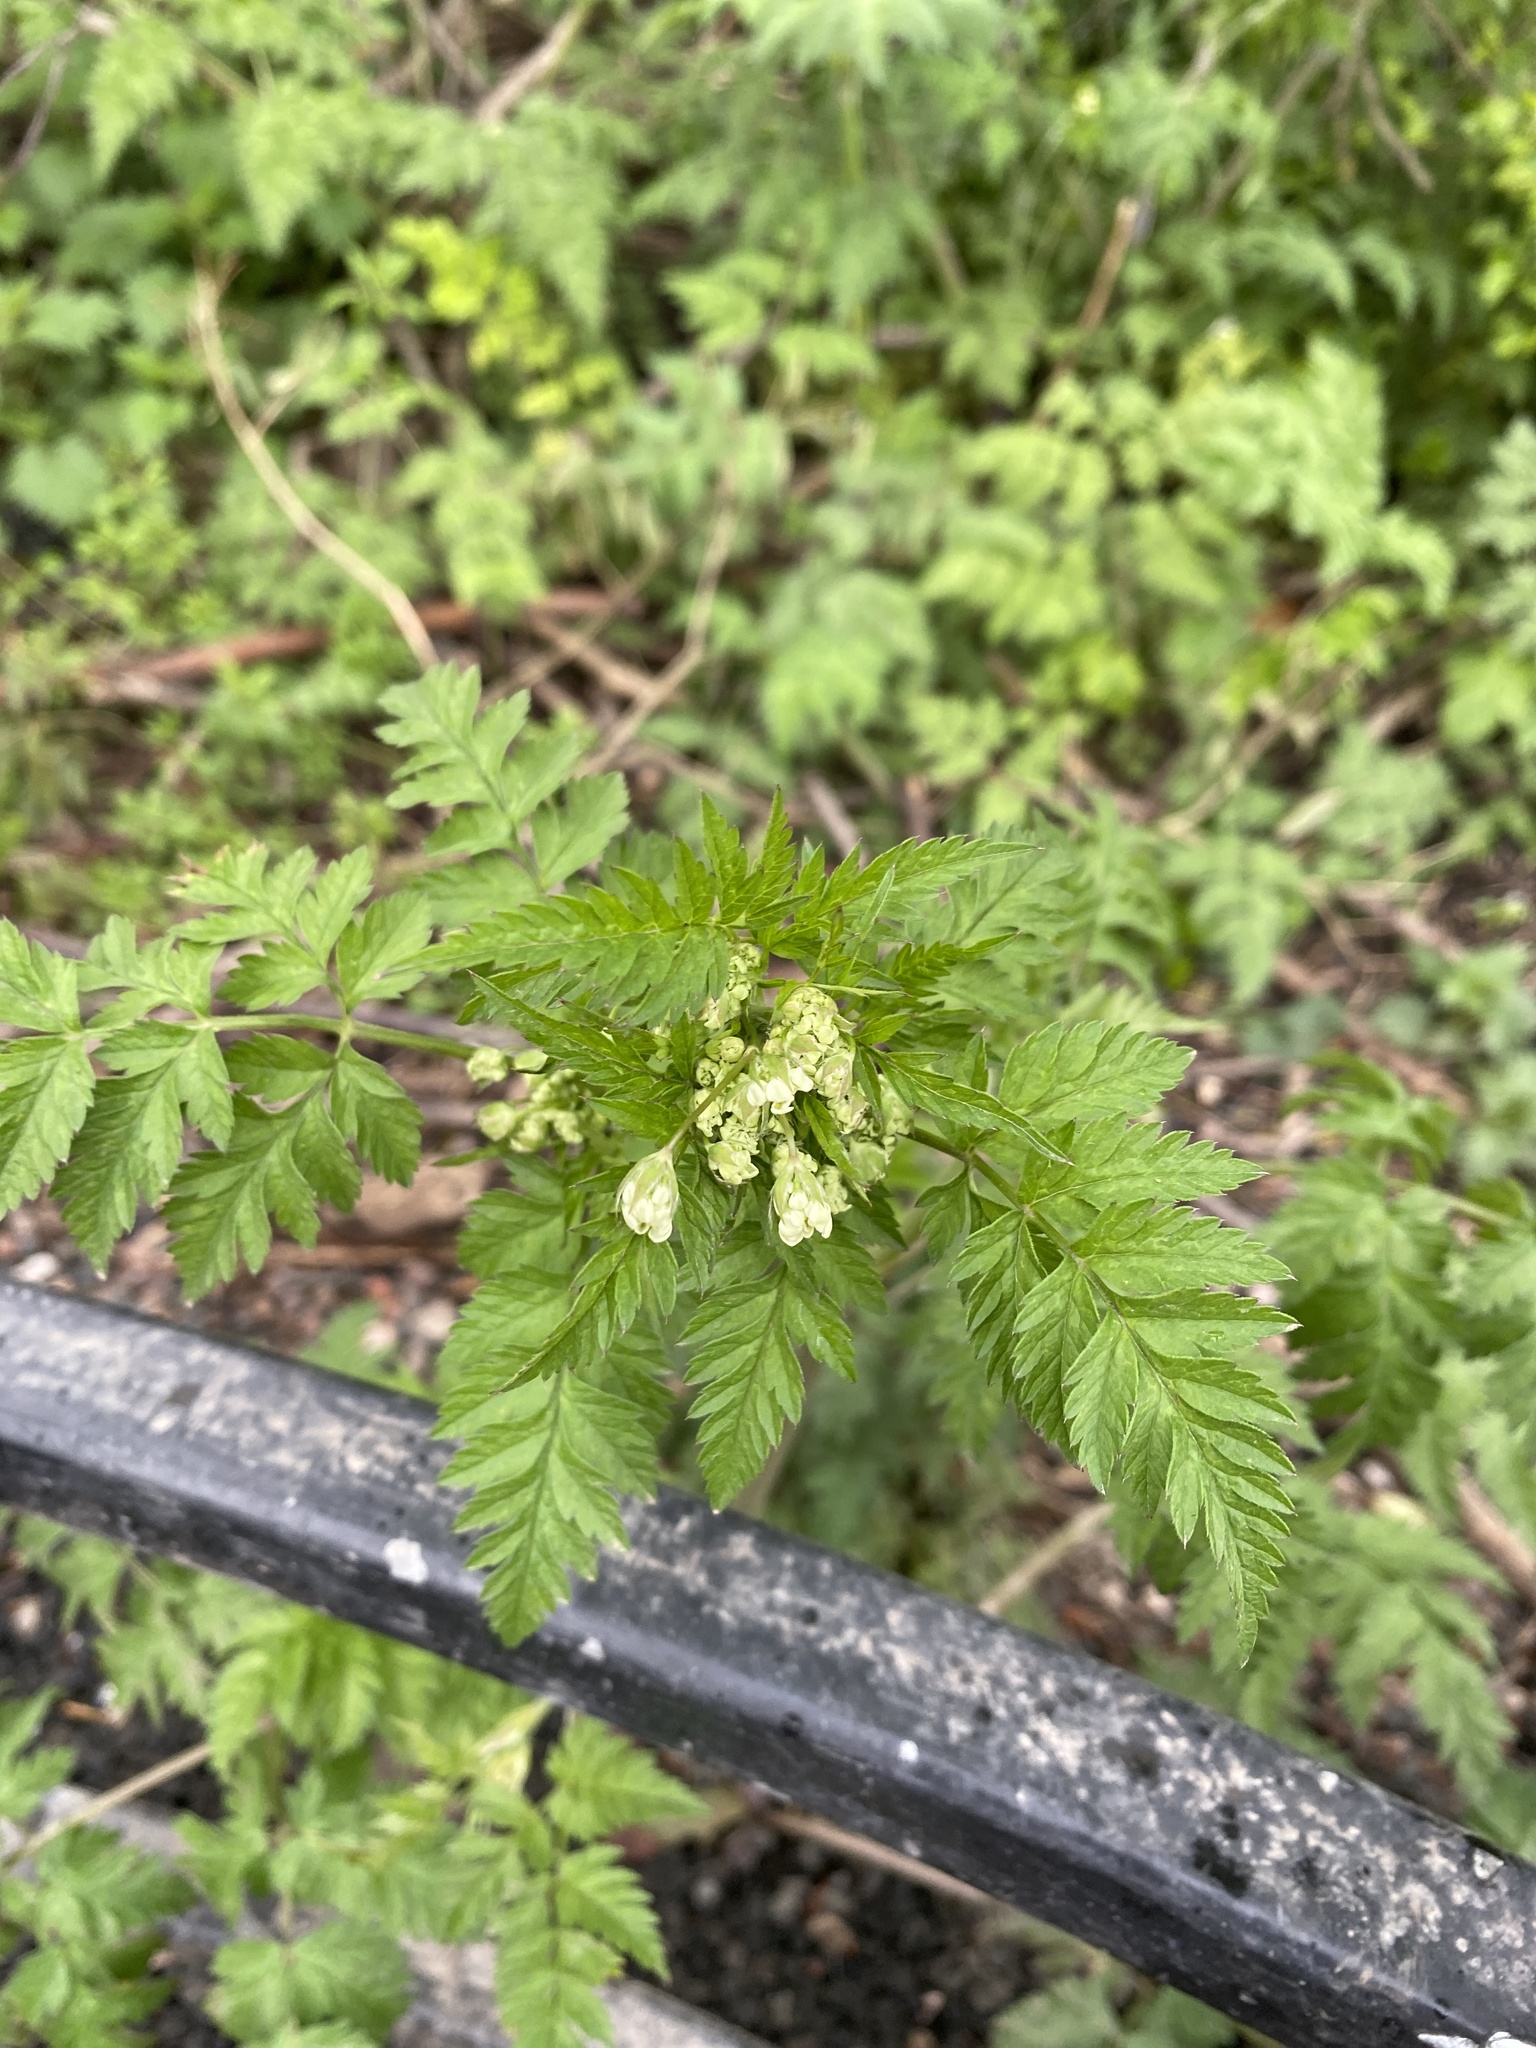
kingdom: Plantae
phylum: Tracheophyta
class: Magnoliopsida
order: Apiales
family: Apiaceae
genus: Anthriscus
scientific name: Anthriscus sylvestris
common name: Cow parsley
